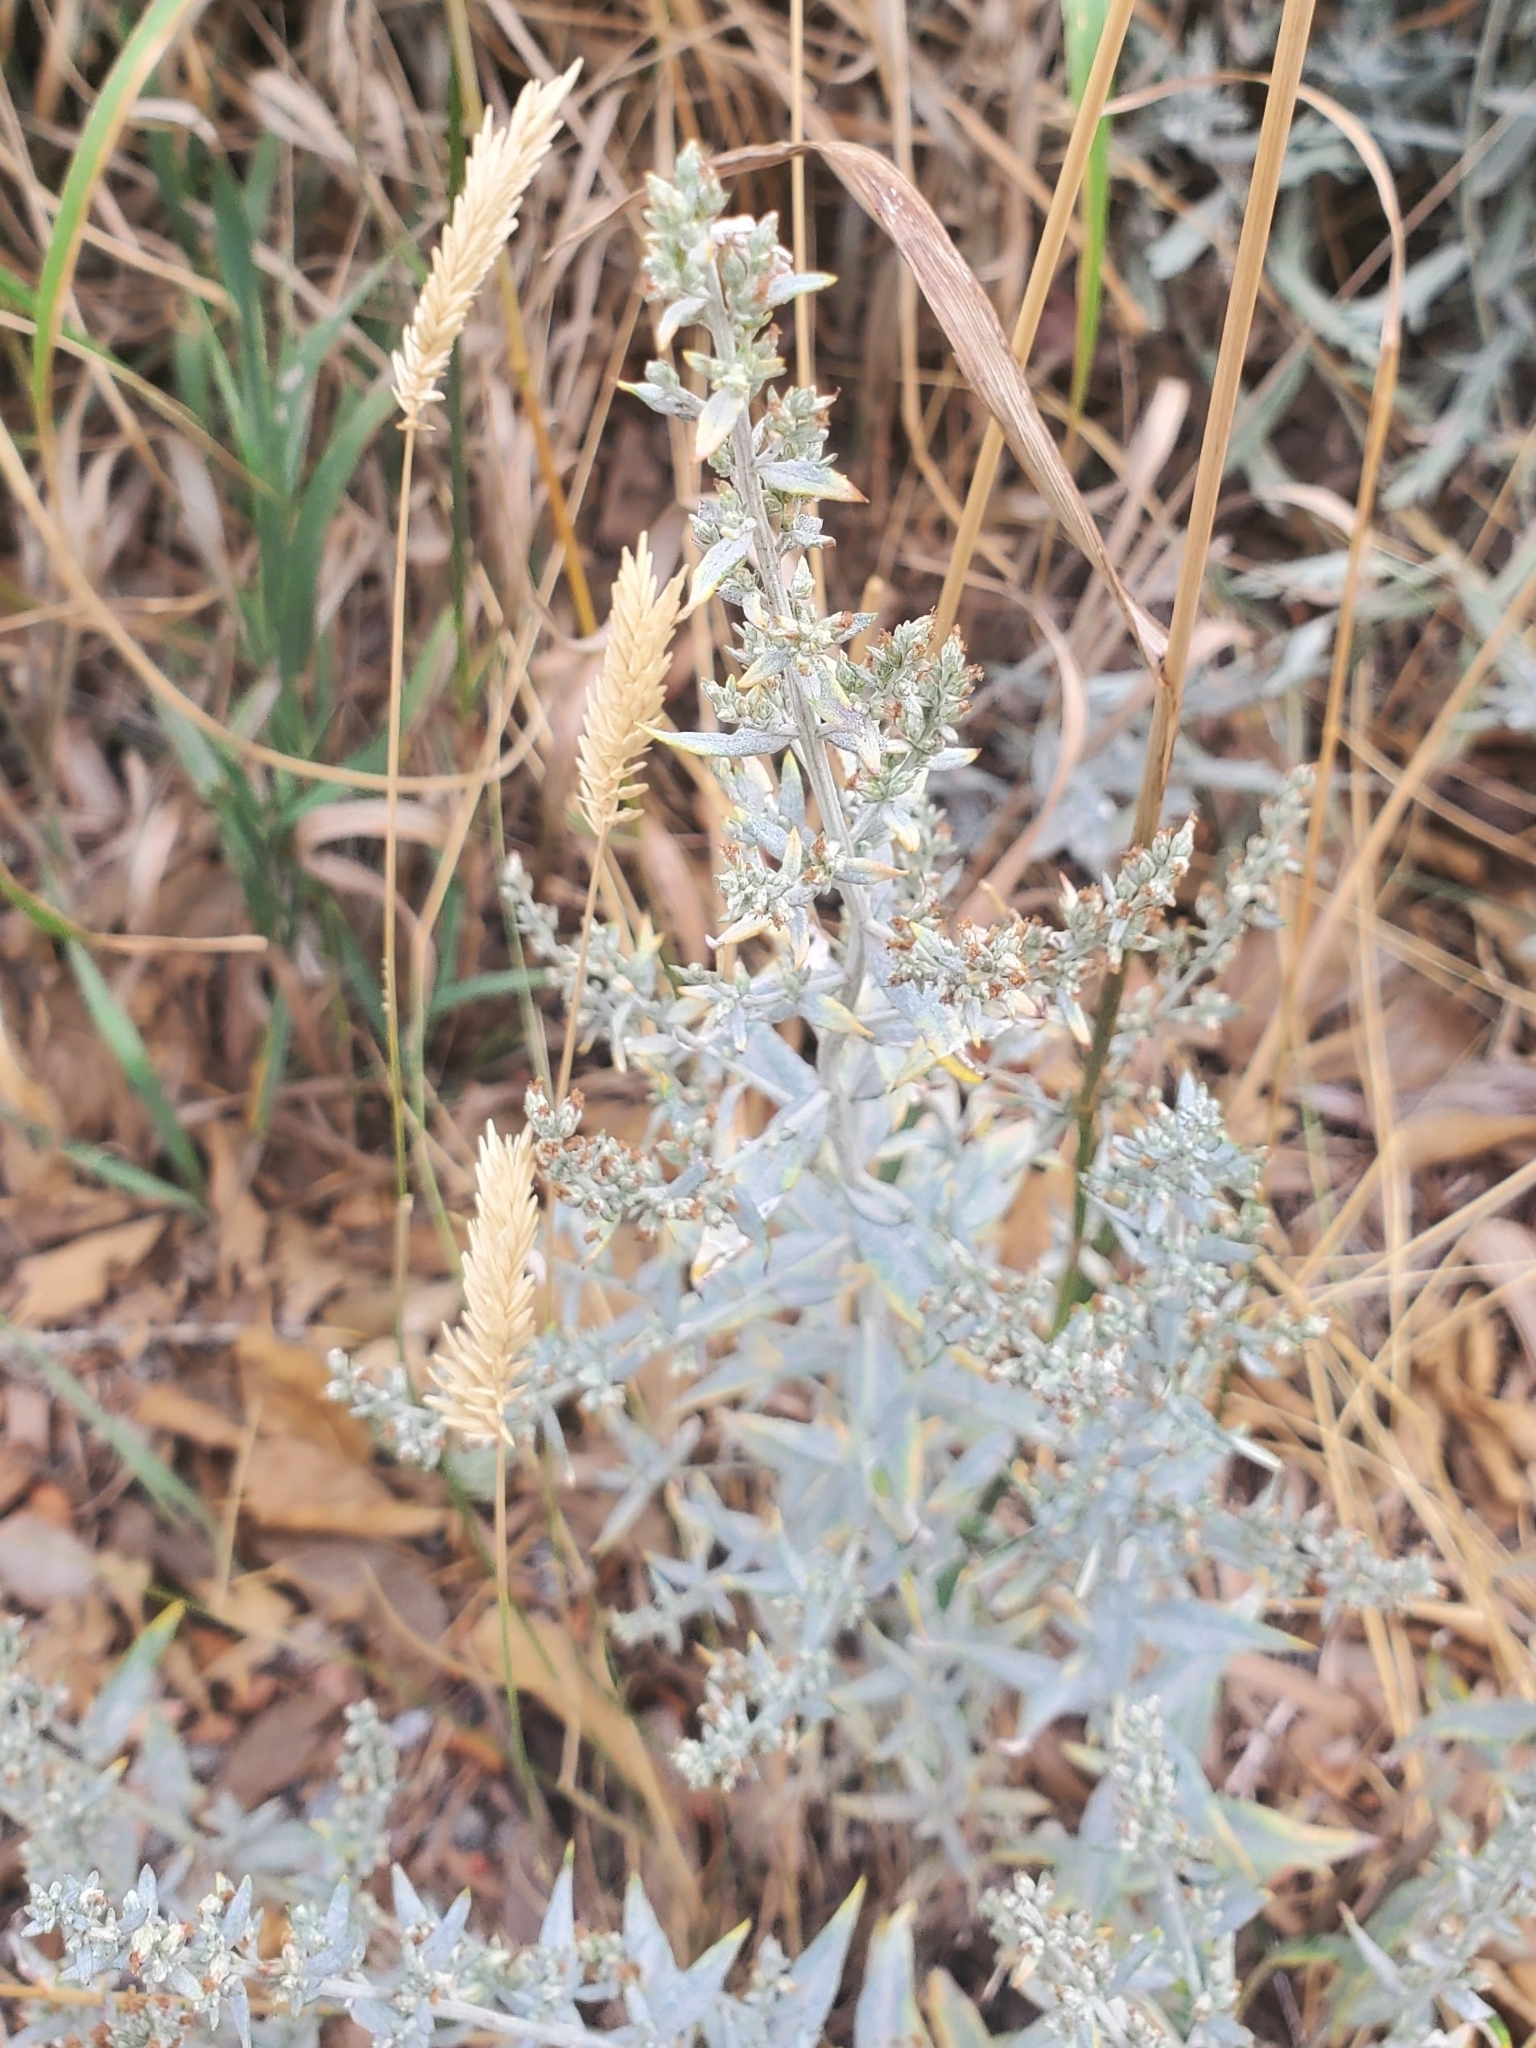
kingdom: Plantae
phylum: Tracheophyta
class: Magnoliopsida
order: Asterales
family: Asteraceae
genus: Artemisia
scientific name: Artemisia ludoviciana
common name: Western mugwort
